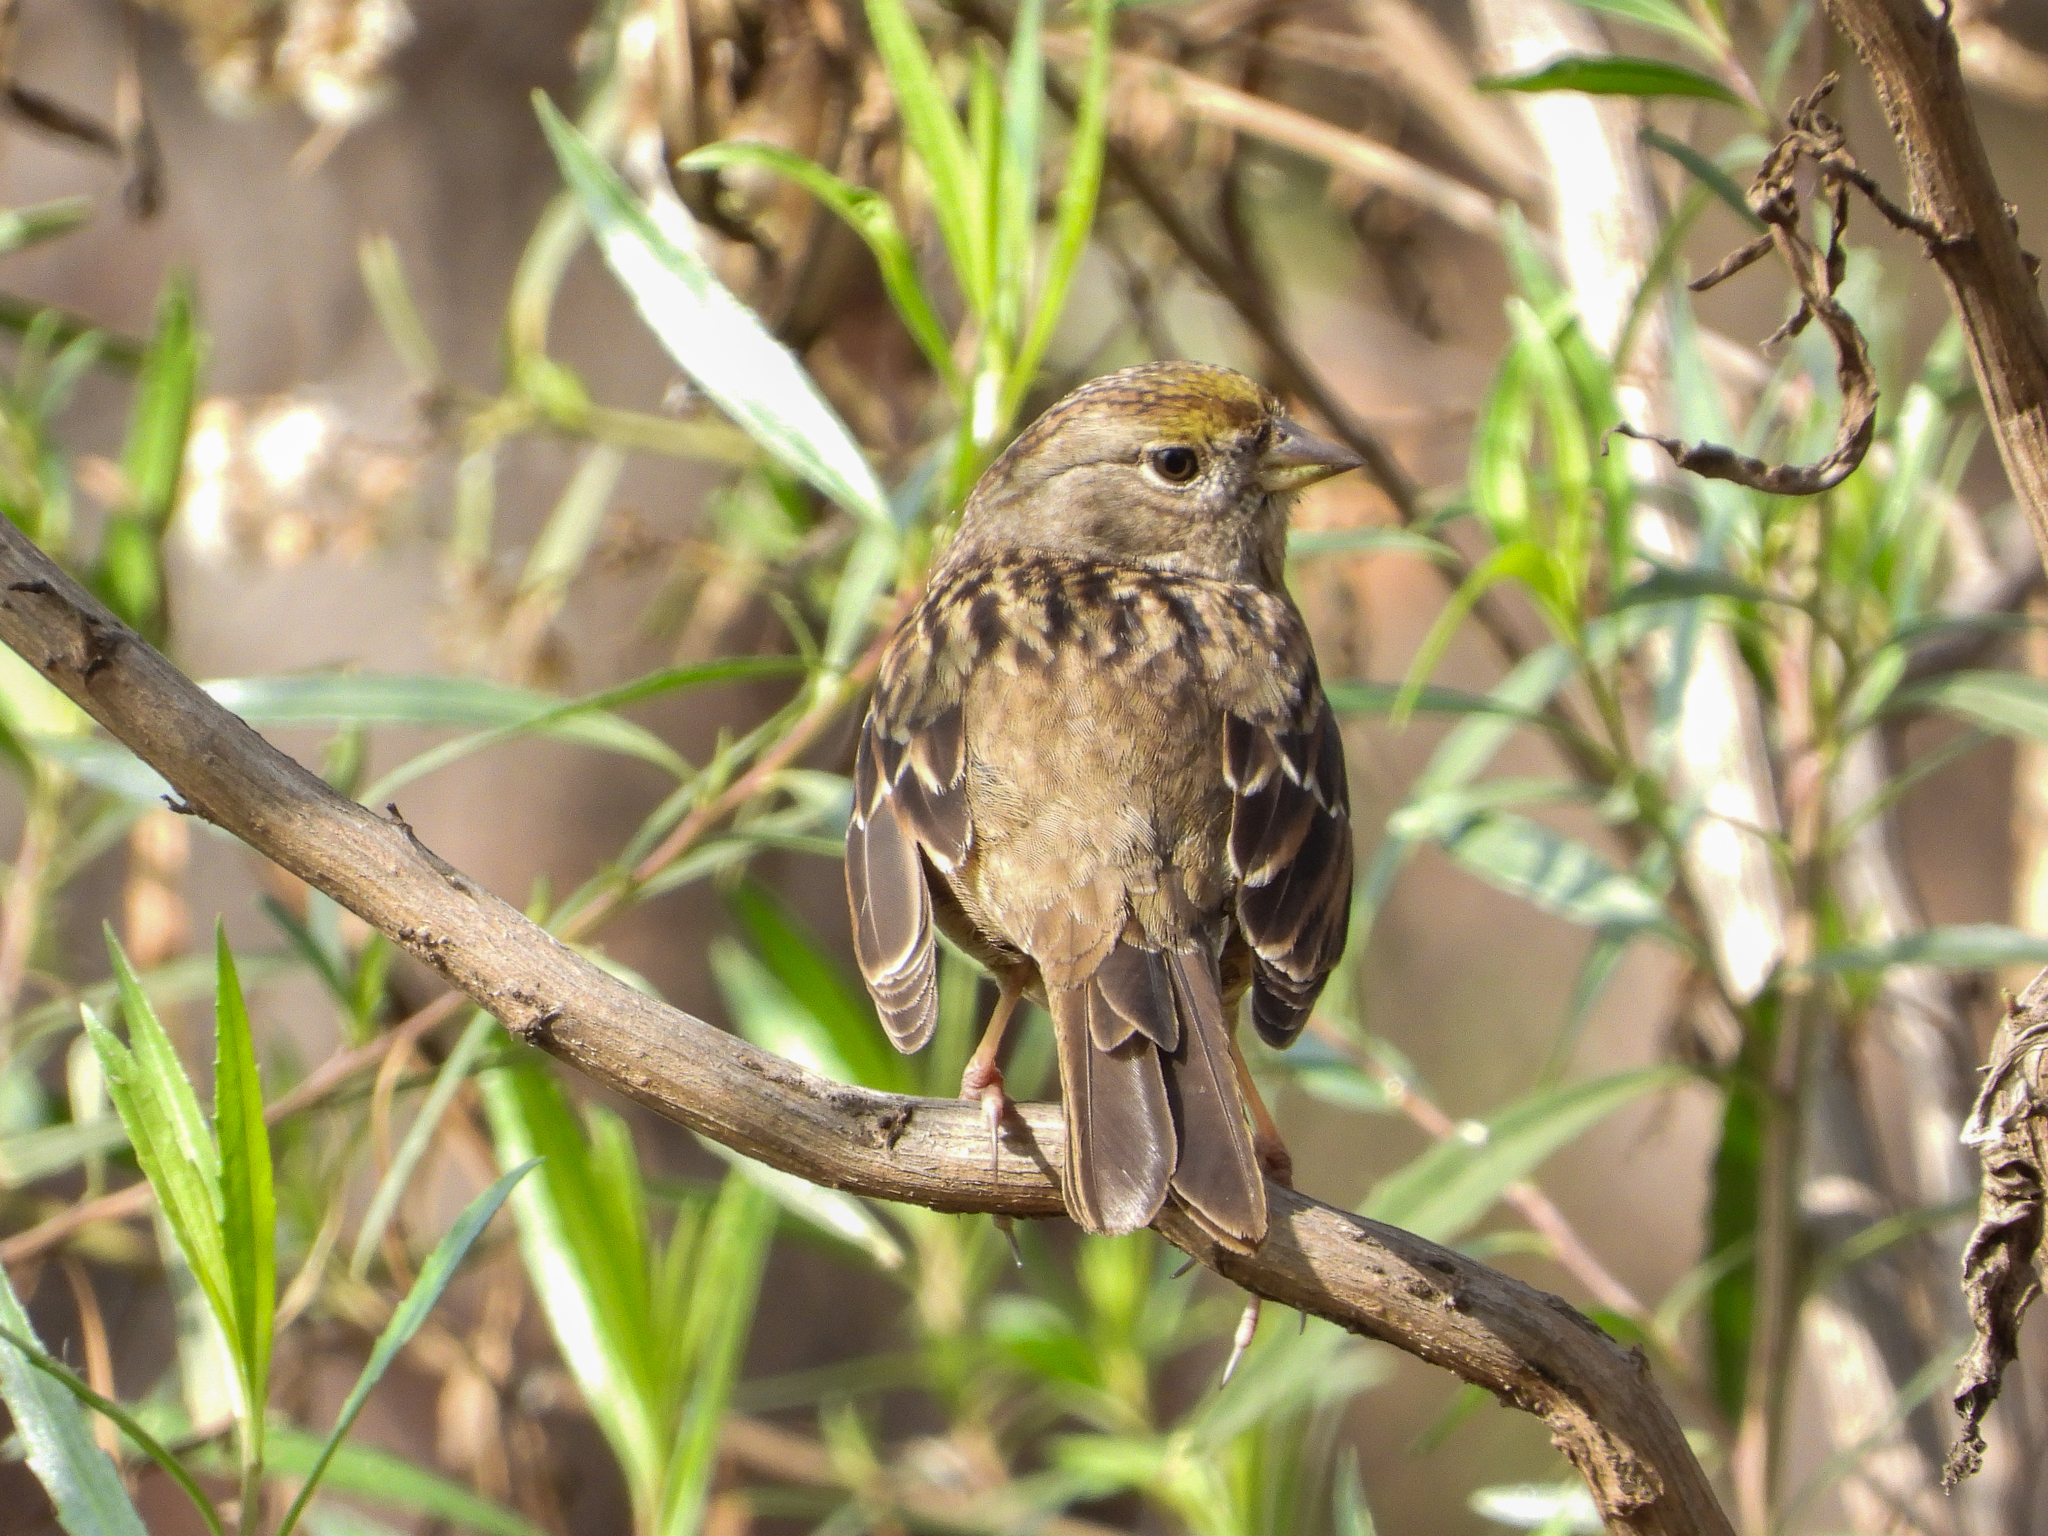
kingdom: Animalia
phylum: Chordata
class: Aves
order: Passeriformes
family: Passerellidae
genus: Zonotrichia
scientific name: Zonotrichia atricapilla
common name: Golden-crowned sparrow
